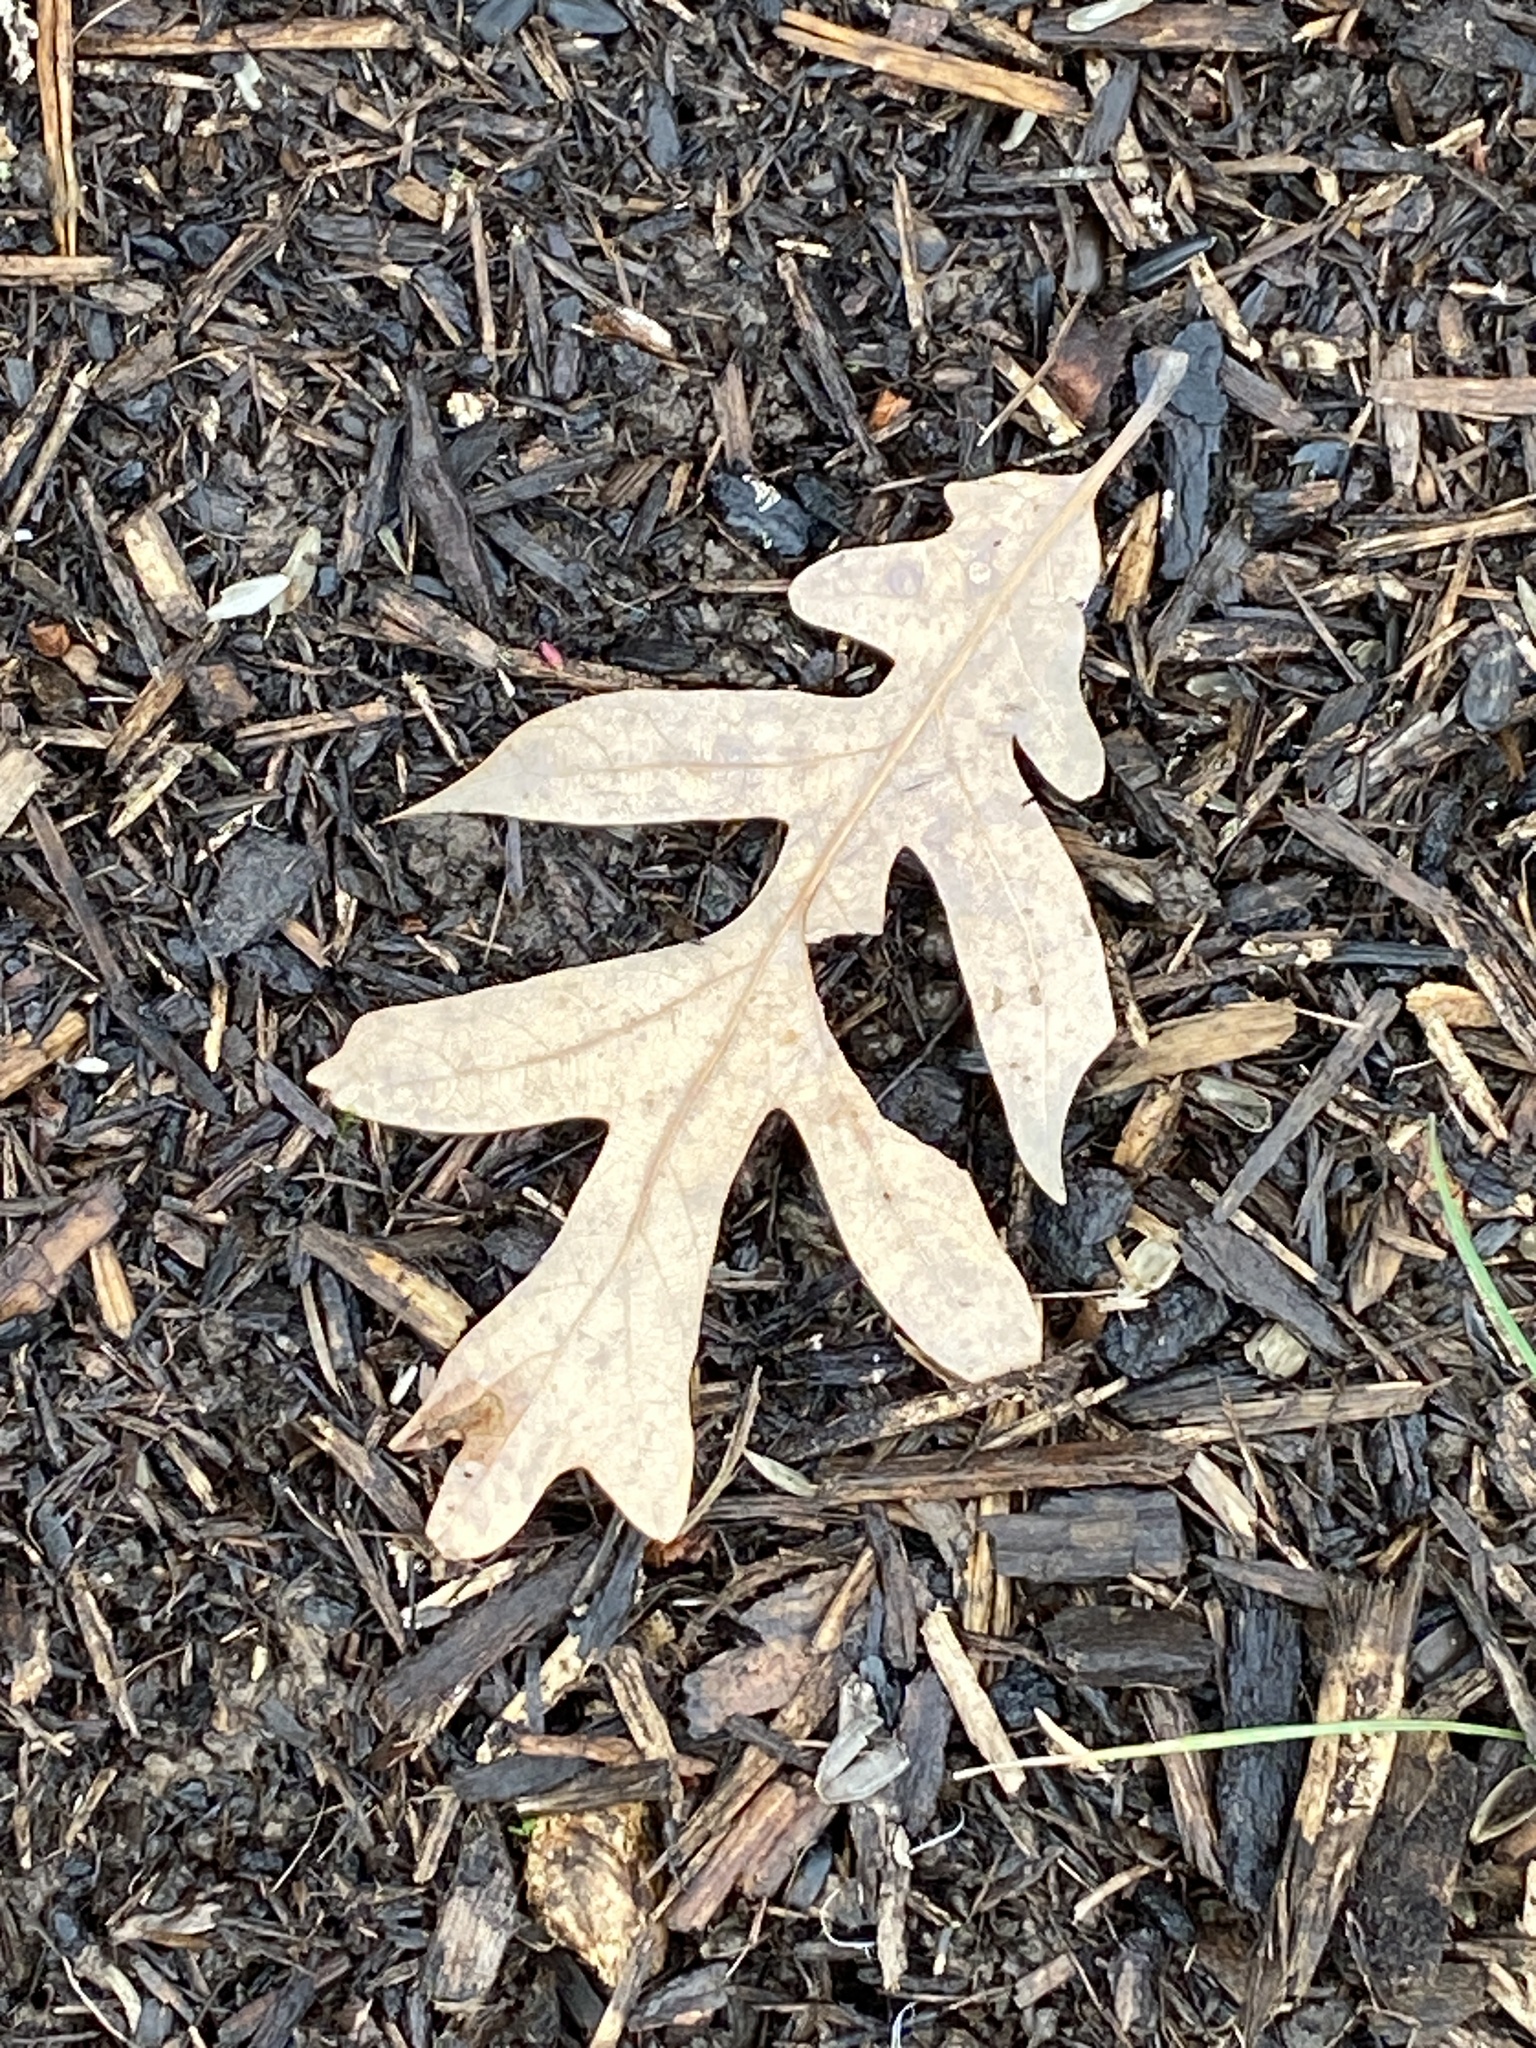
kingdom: Plantae
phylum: Tracheophyta
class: Magnoliopsida
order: Fagales
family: Fagaceae
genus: Quercus
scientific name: Quercus alba
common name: White oak
